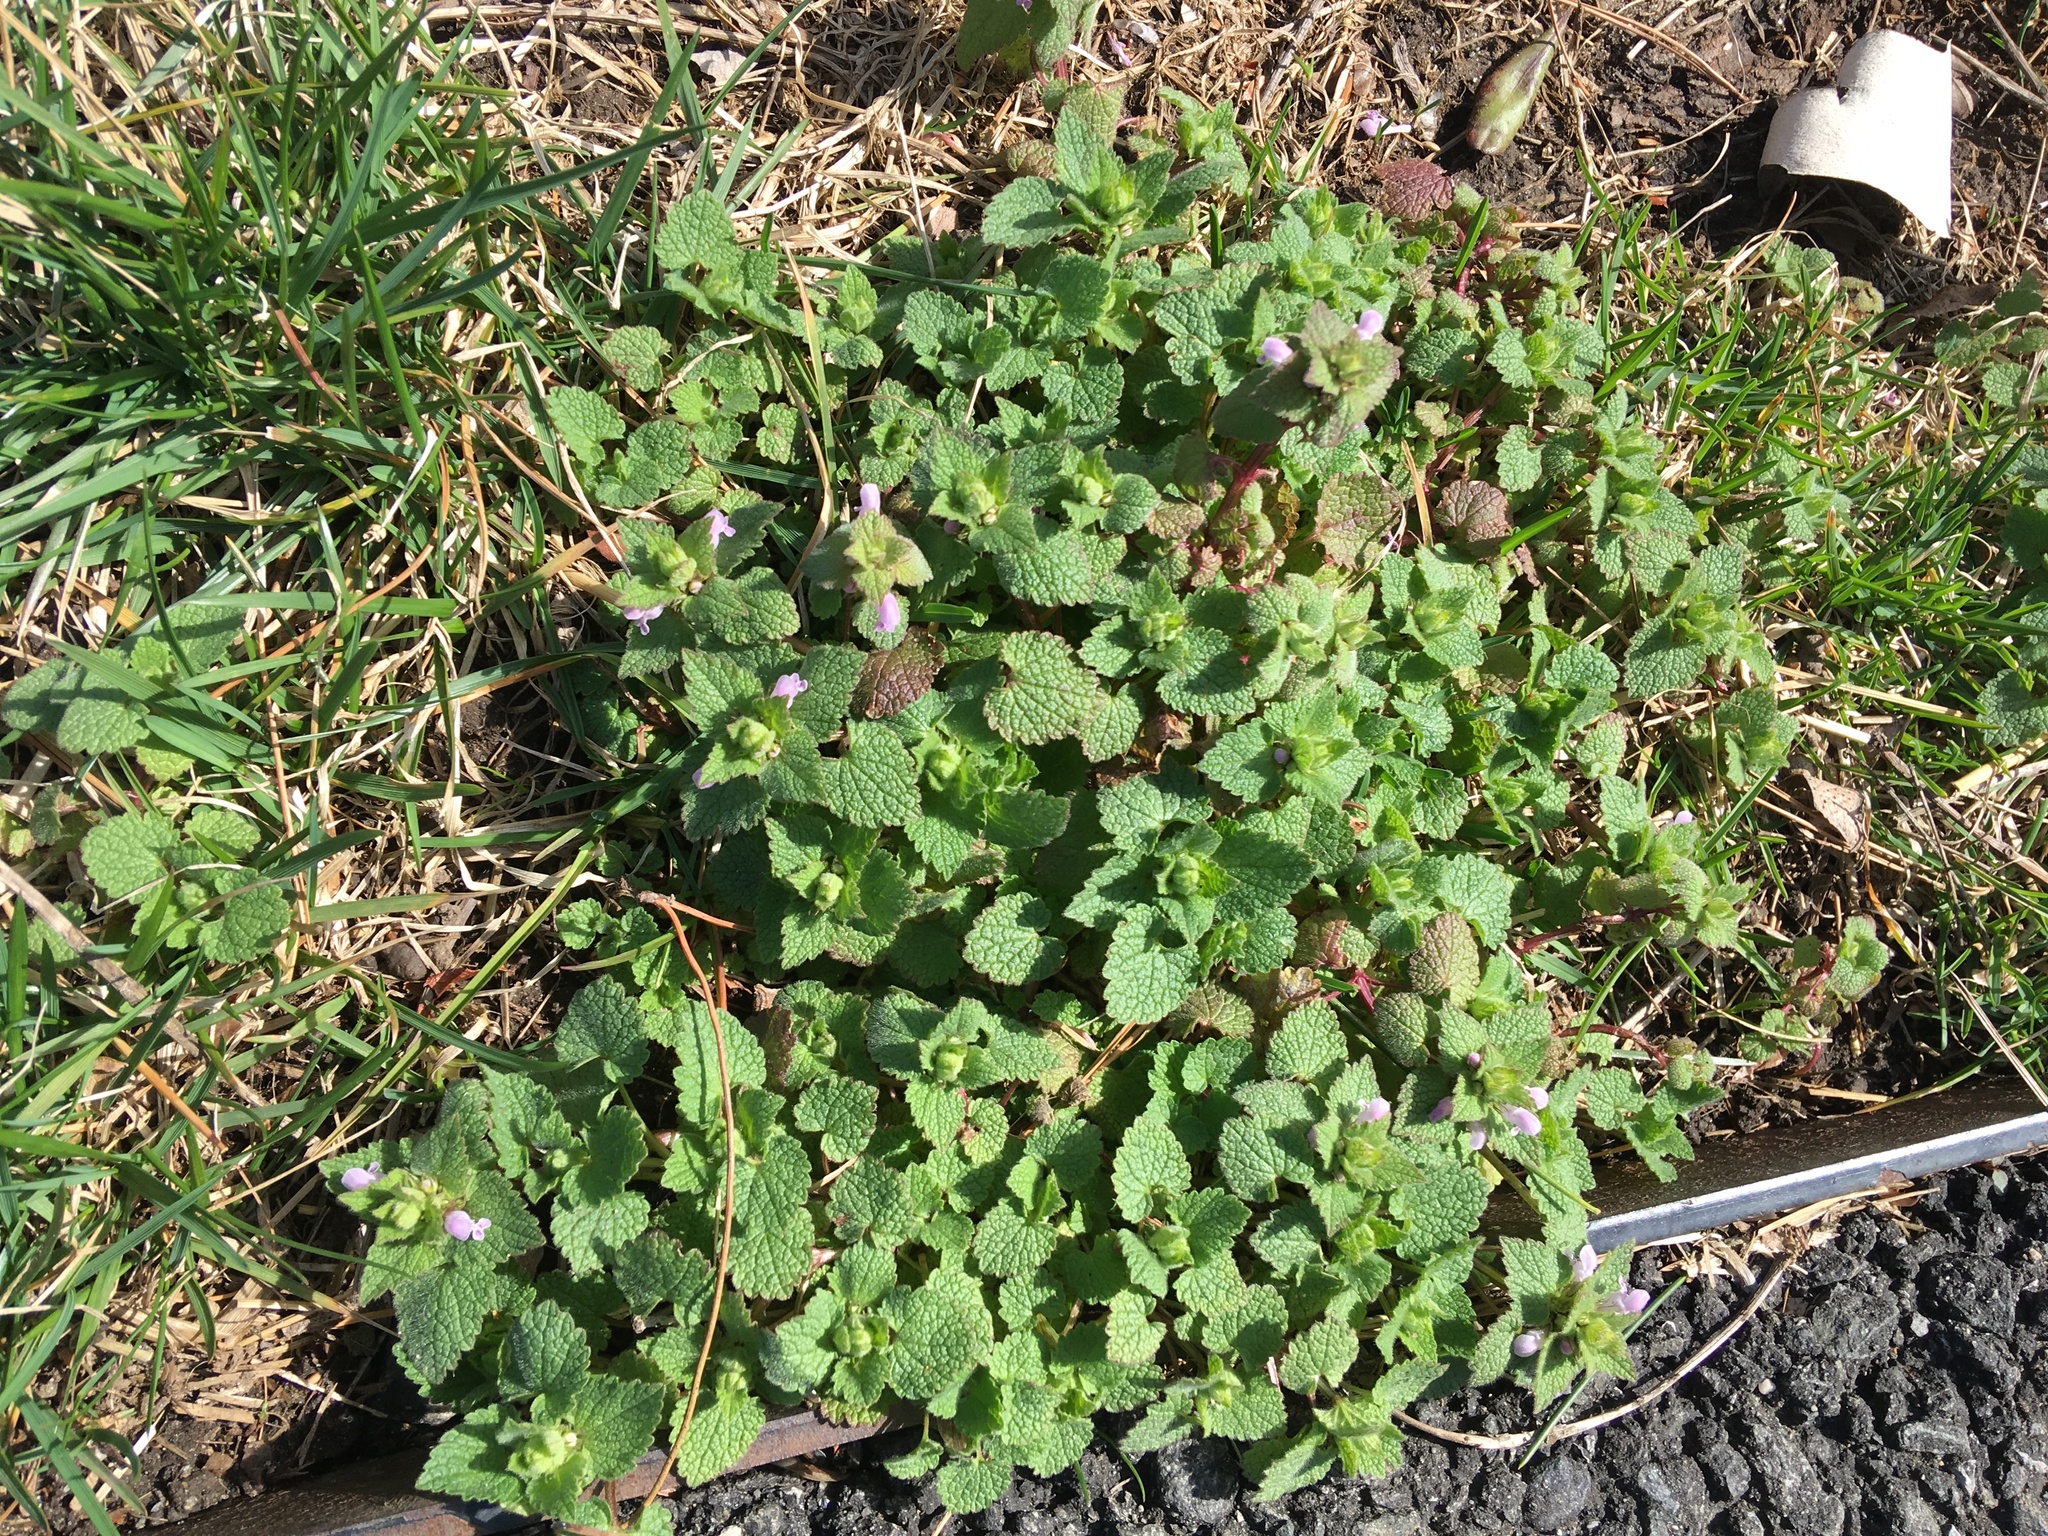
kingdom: Plantae
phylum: Tracheophyta
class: Magnoliopsida
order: Lamiales
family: Lamiaceae
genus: Lamium
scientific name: Lamium purpureum
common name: Red dead-nettle
